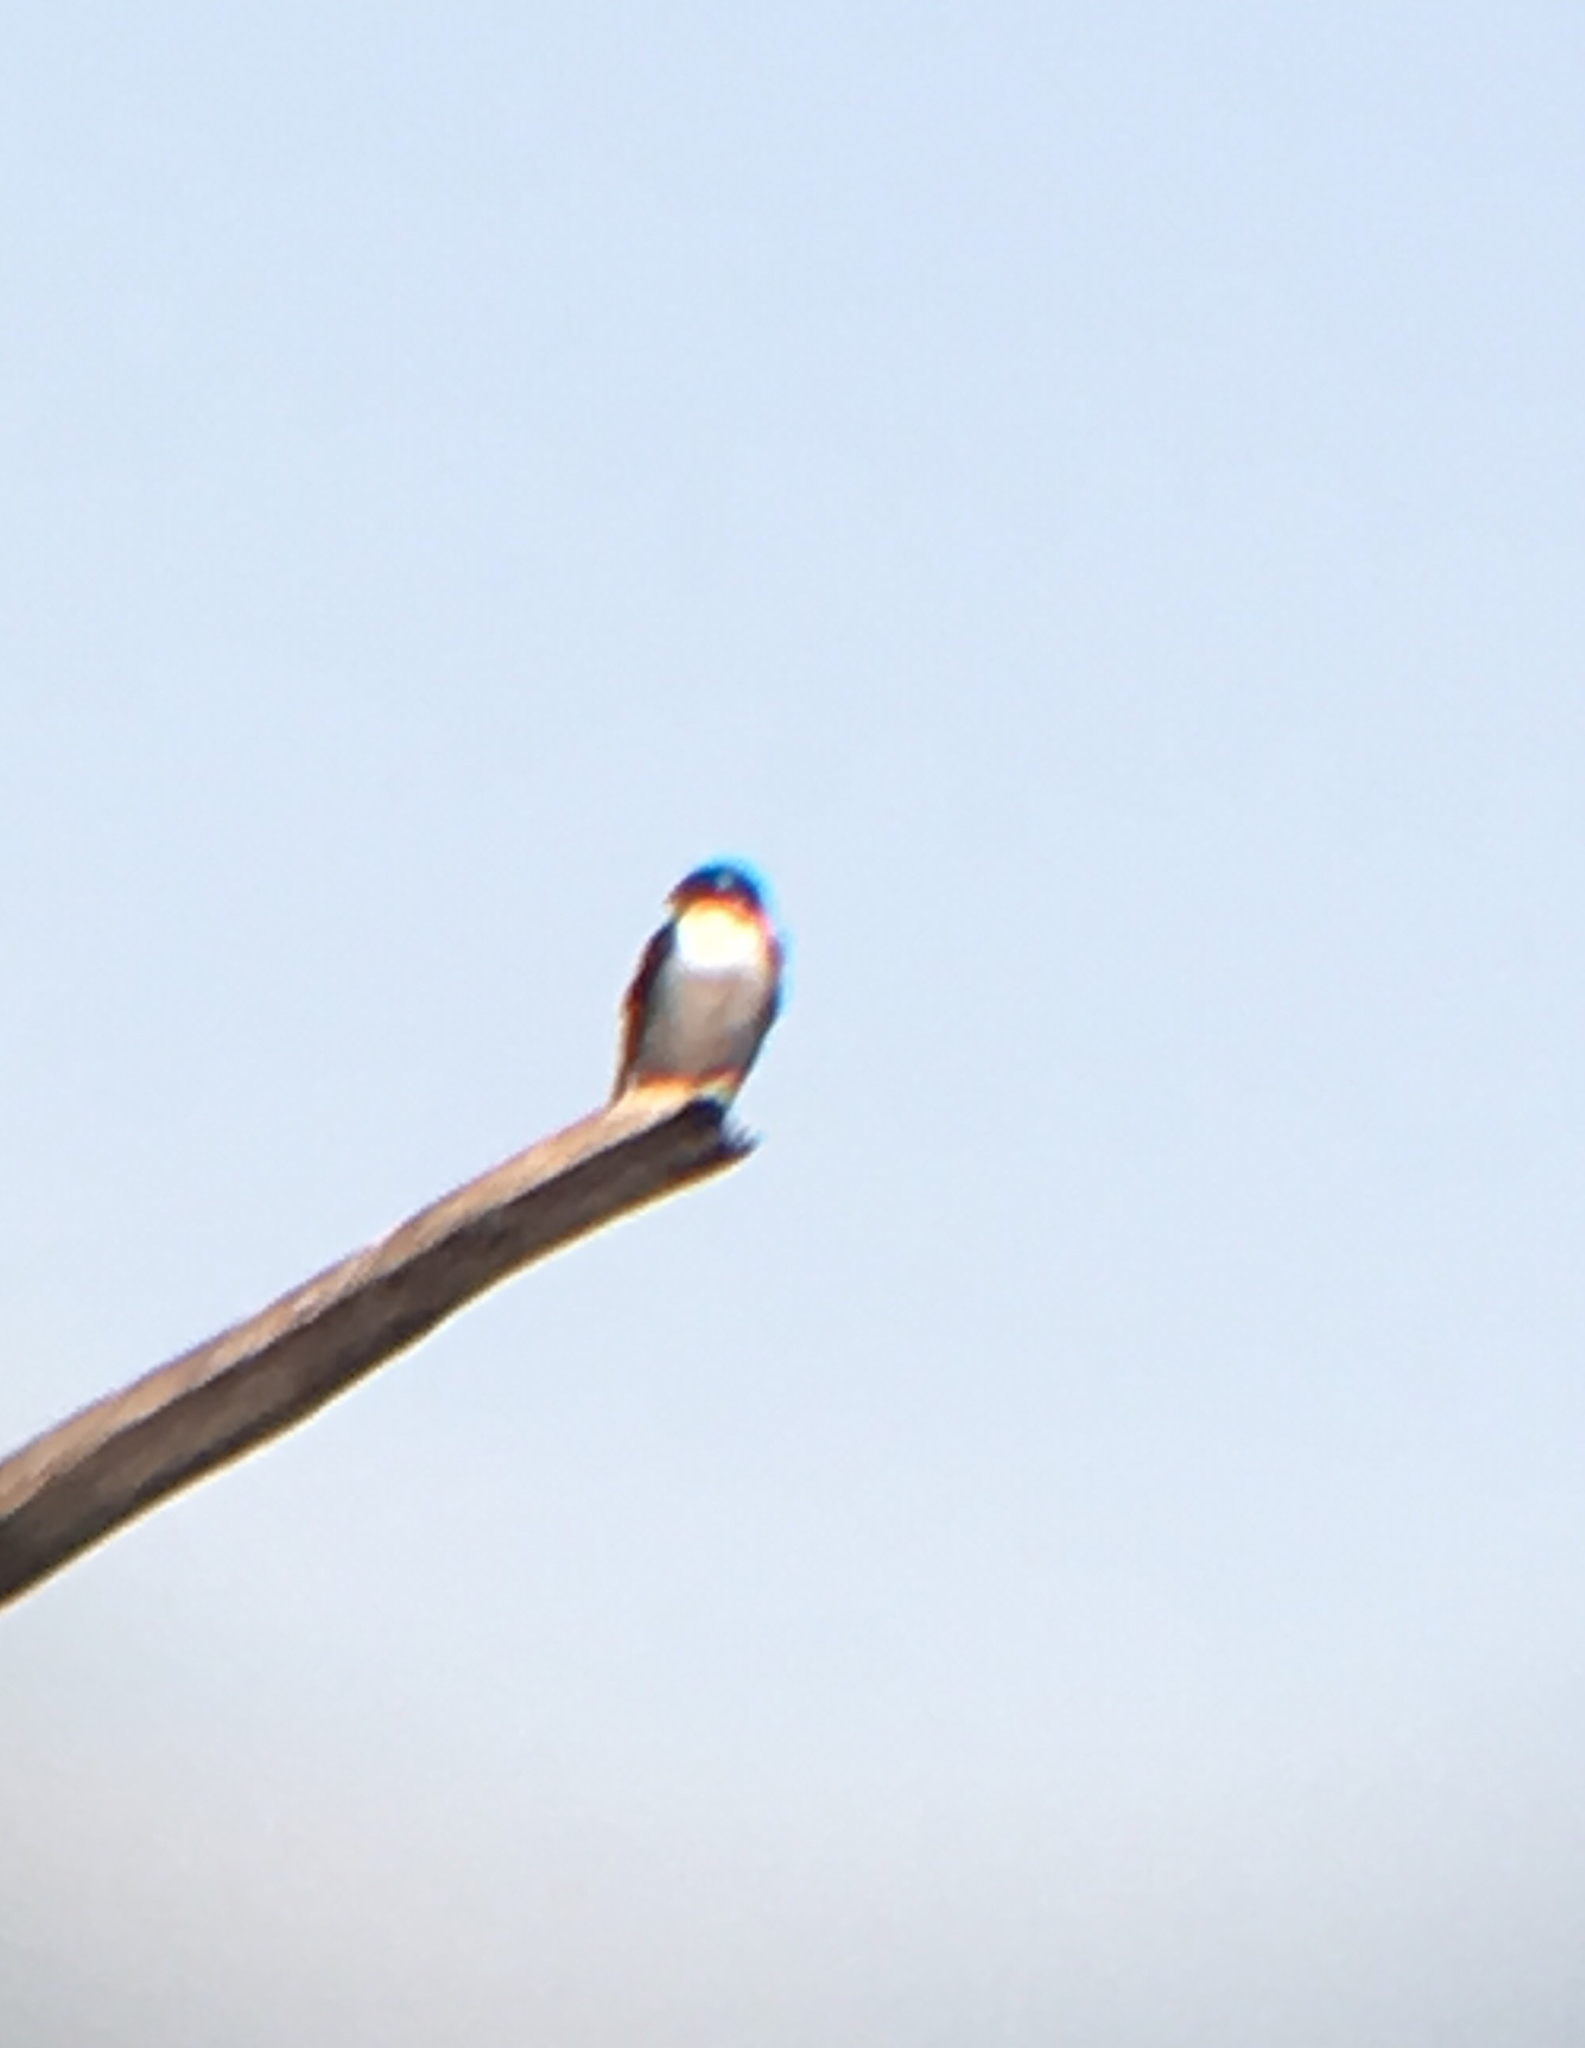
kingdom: Animalia
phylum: Chordata
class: Aves
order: Passeriformes
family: Hirundinidae
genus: Tachycineta
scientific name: Tachycineta bicolor
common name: Tree swallow
